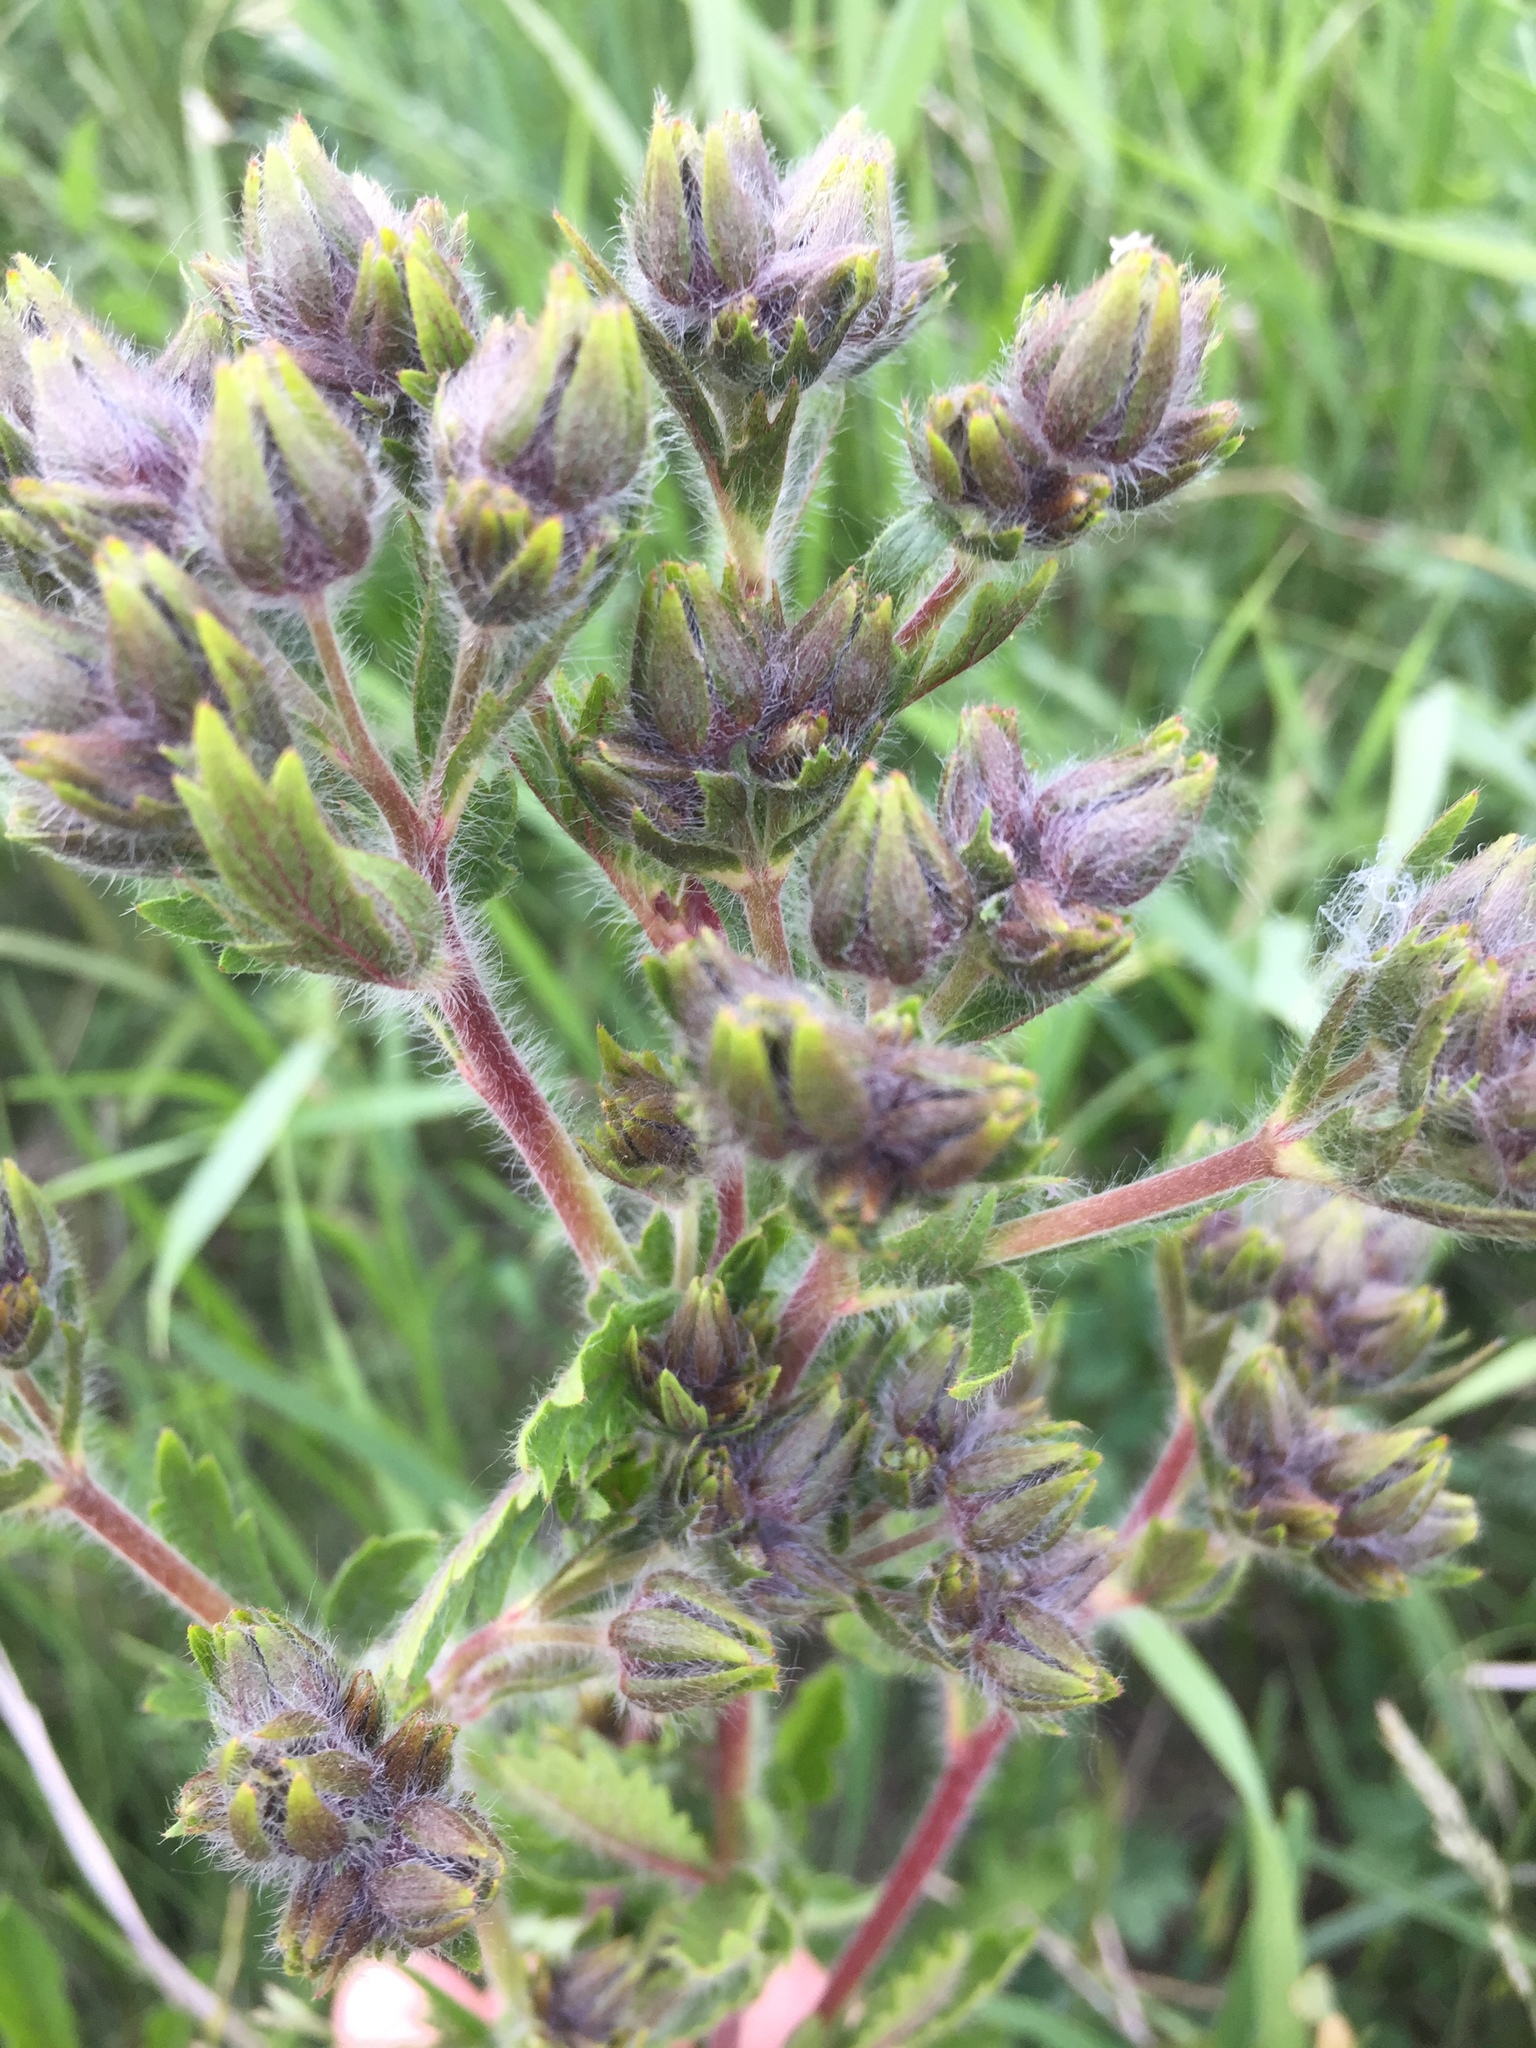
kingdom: Plantae
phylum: Tracheophyta
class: Magnoliopsida
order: Rosales
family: Rosaceae
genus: Potentilla
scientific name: Potentilla recta
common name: Sulphur cinquefoil
